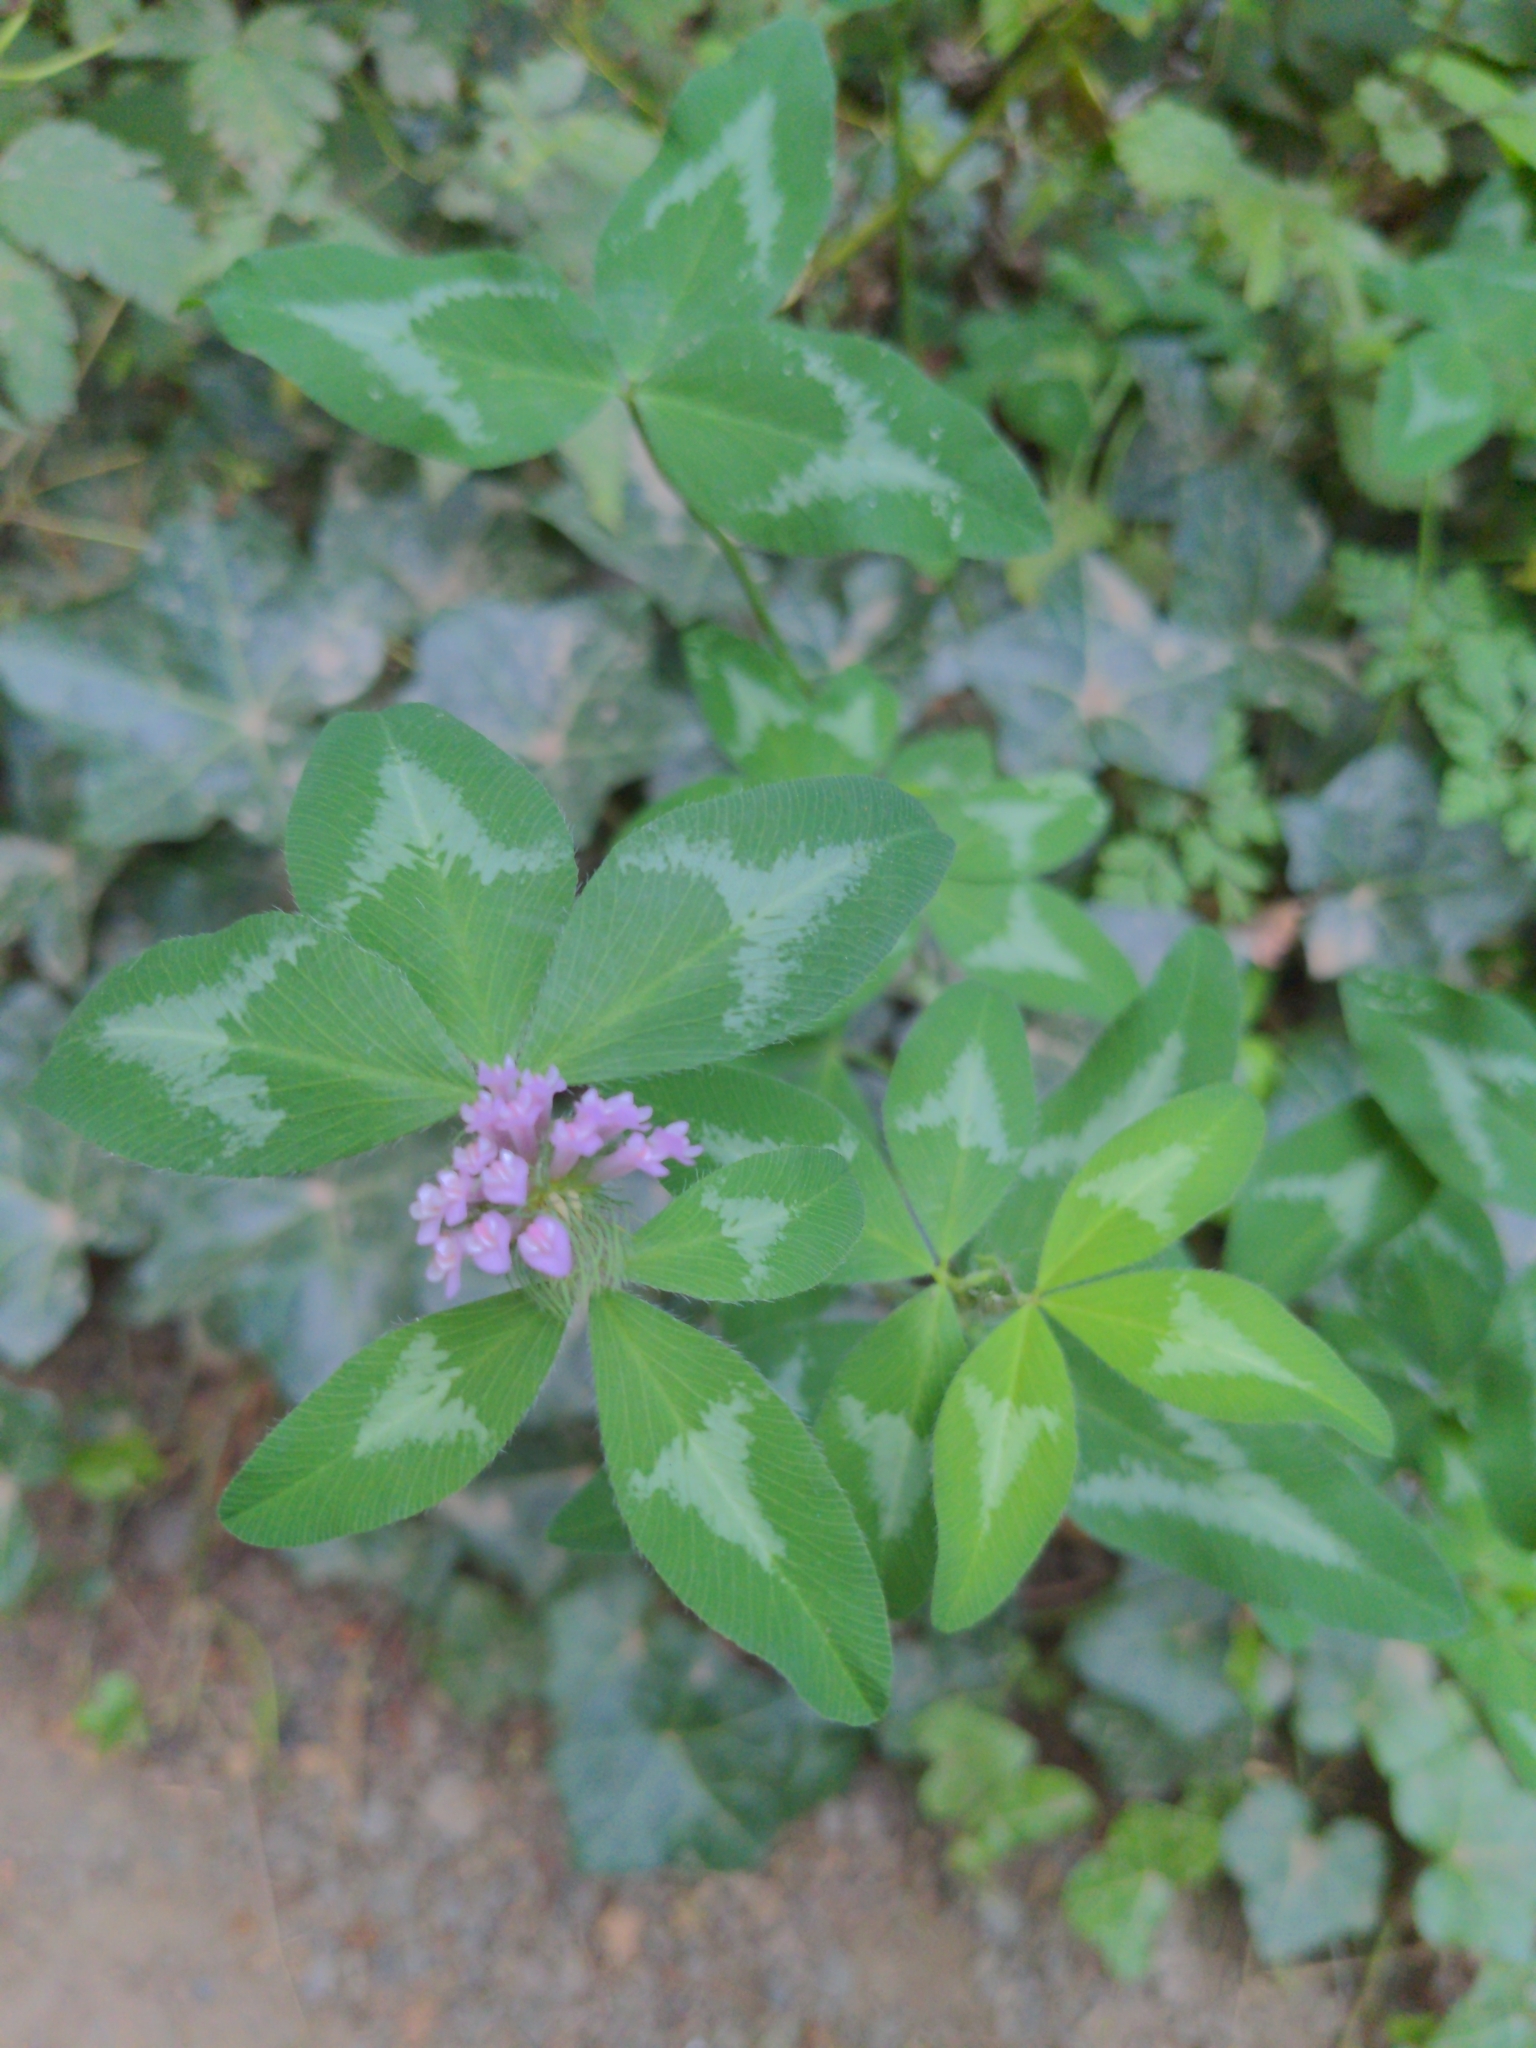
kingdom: Plantae
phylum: Tracheophyta
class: Magnoliopsida
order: Fabales
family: Fabaceae
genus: Trifolium
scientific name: Trifolium pratense
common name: Red clover
